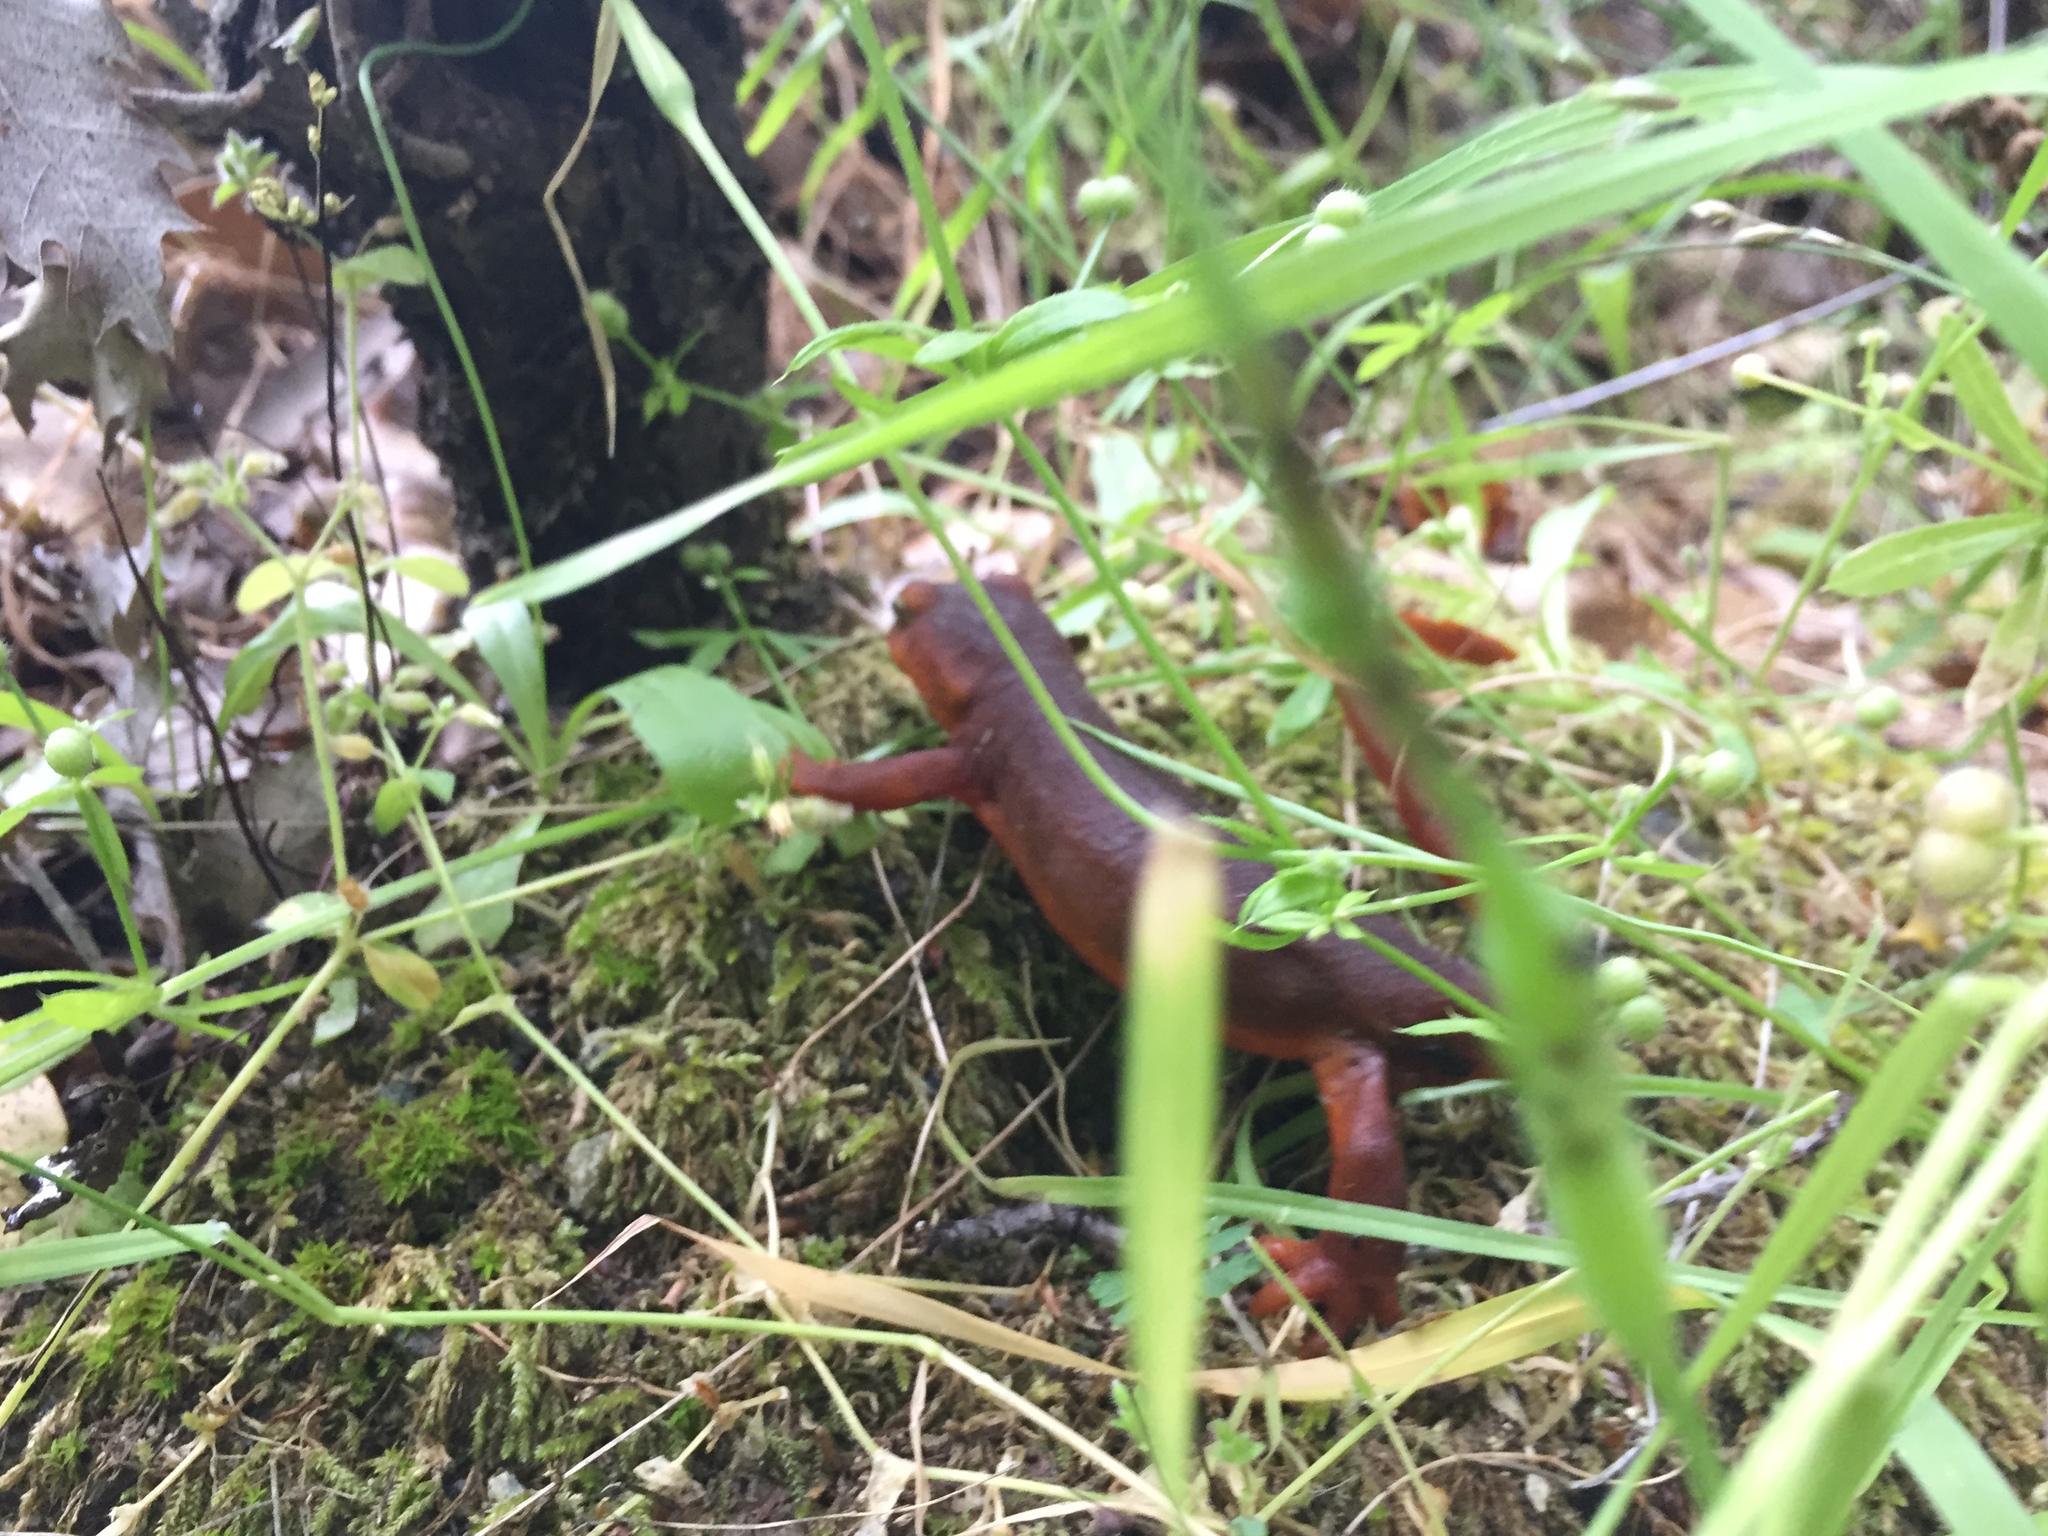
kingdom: Animalia
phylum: Chordata
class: Amphibia
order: Caudata
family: Salamandridae
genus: Taricha
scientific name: Taricha sierrae
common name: Sierra newt
